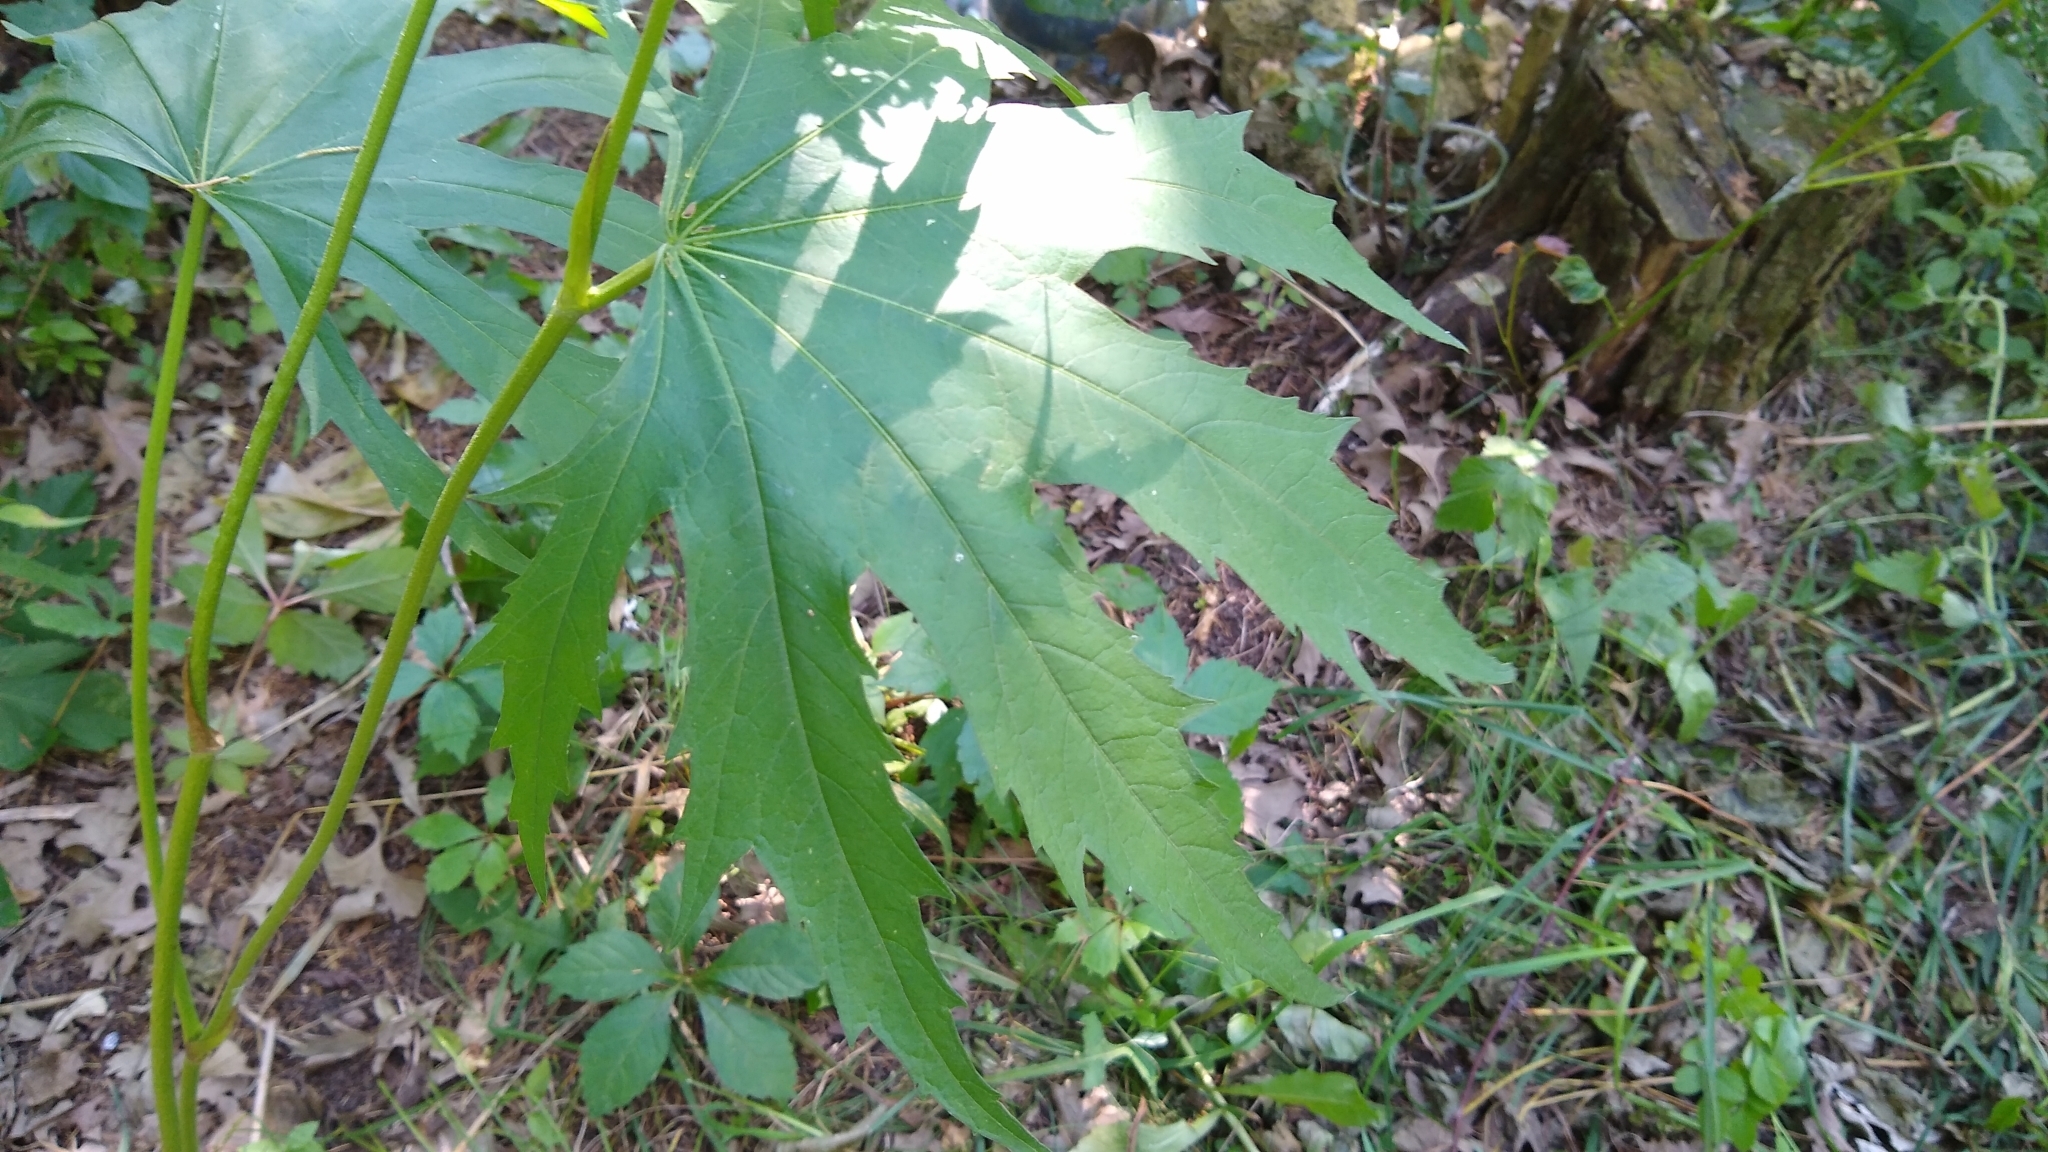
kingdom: Plantae
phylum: Tracheophyta
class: Magnoliopsida
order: Malvales
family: Malvaceae
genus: Napaea
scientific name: Napaea dioica
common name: Glade-mallow
